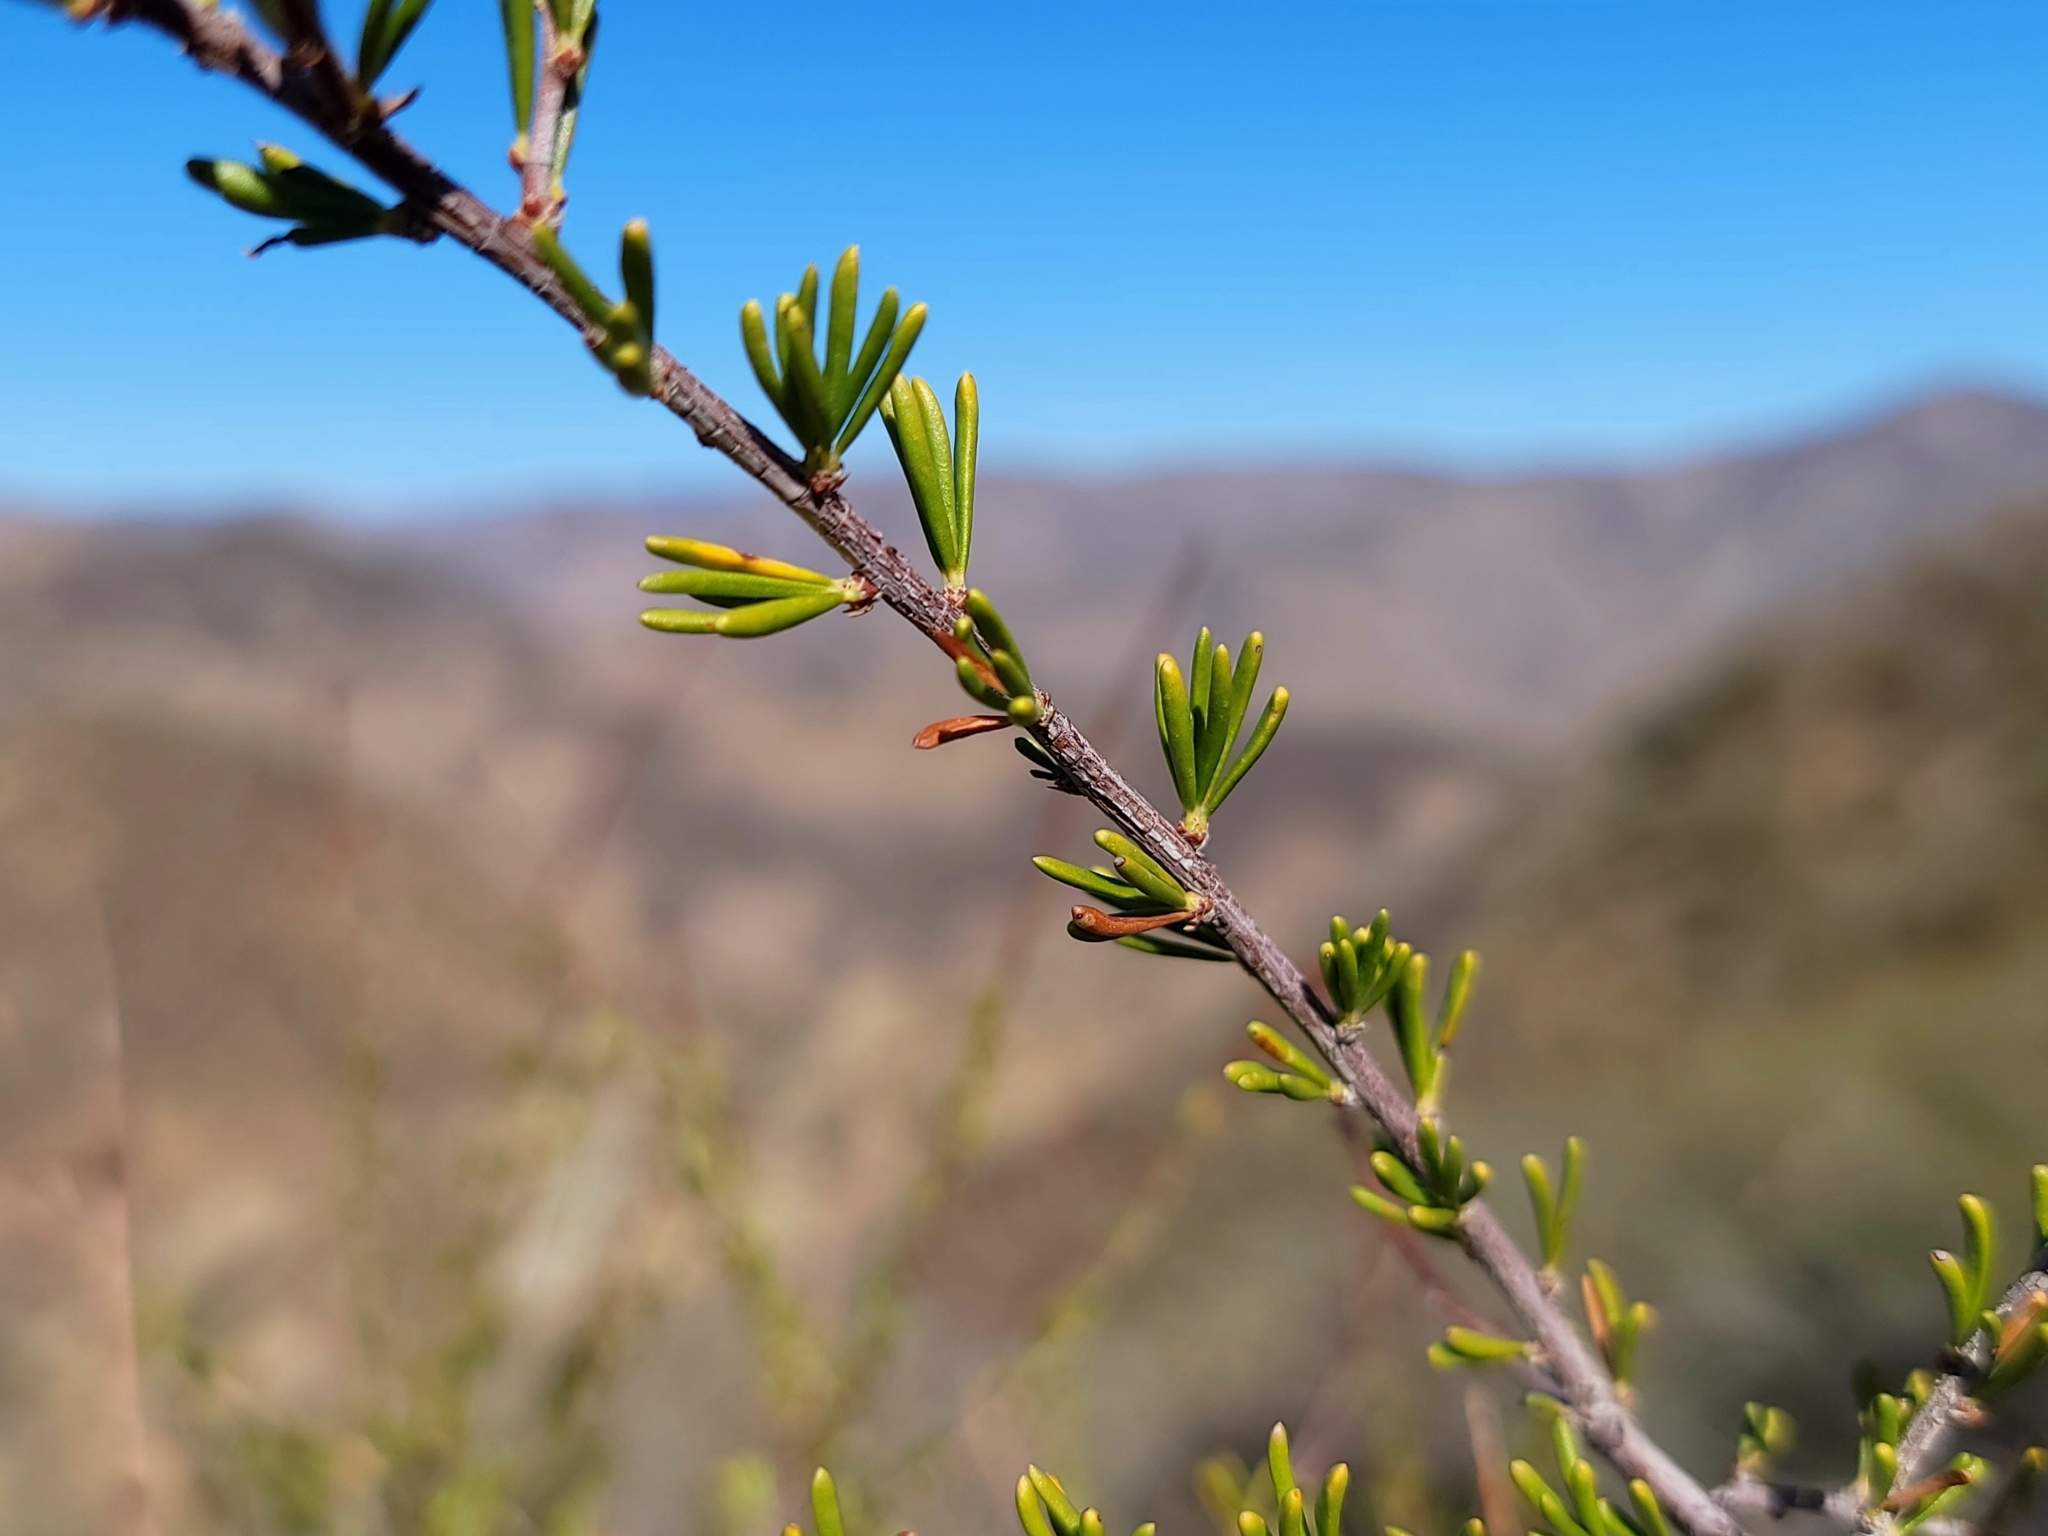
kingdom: Plantae
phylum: Tracheophyta
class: Magnoliopsida
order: Rosales
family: Rosaceae
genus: Adenostoma
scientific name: Adenostoma fasciculatum
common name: Chamise
